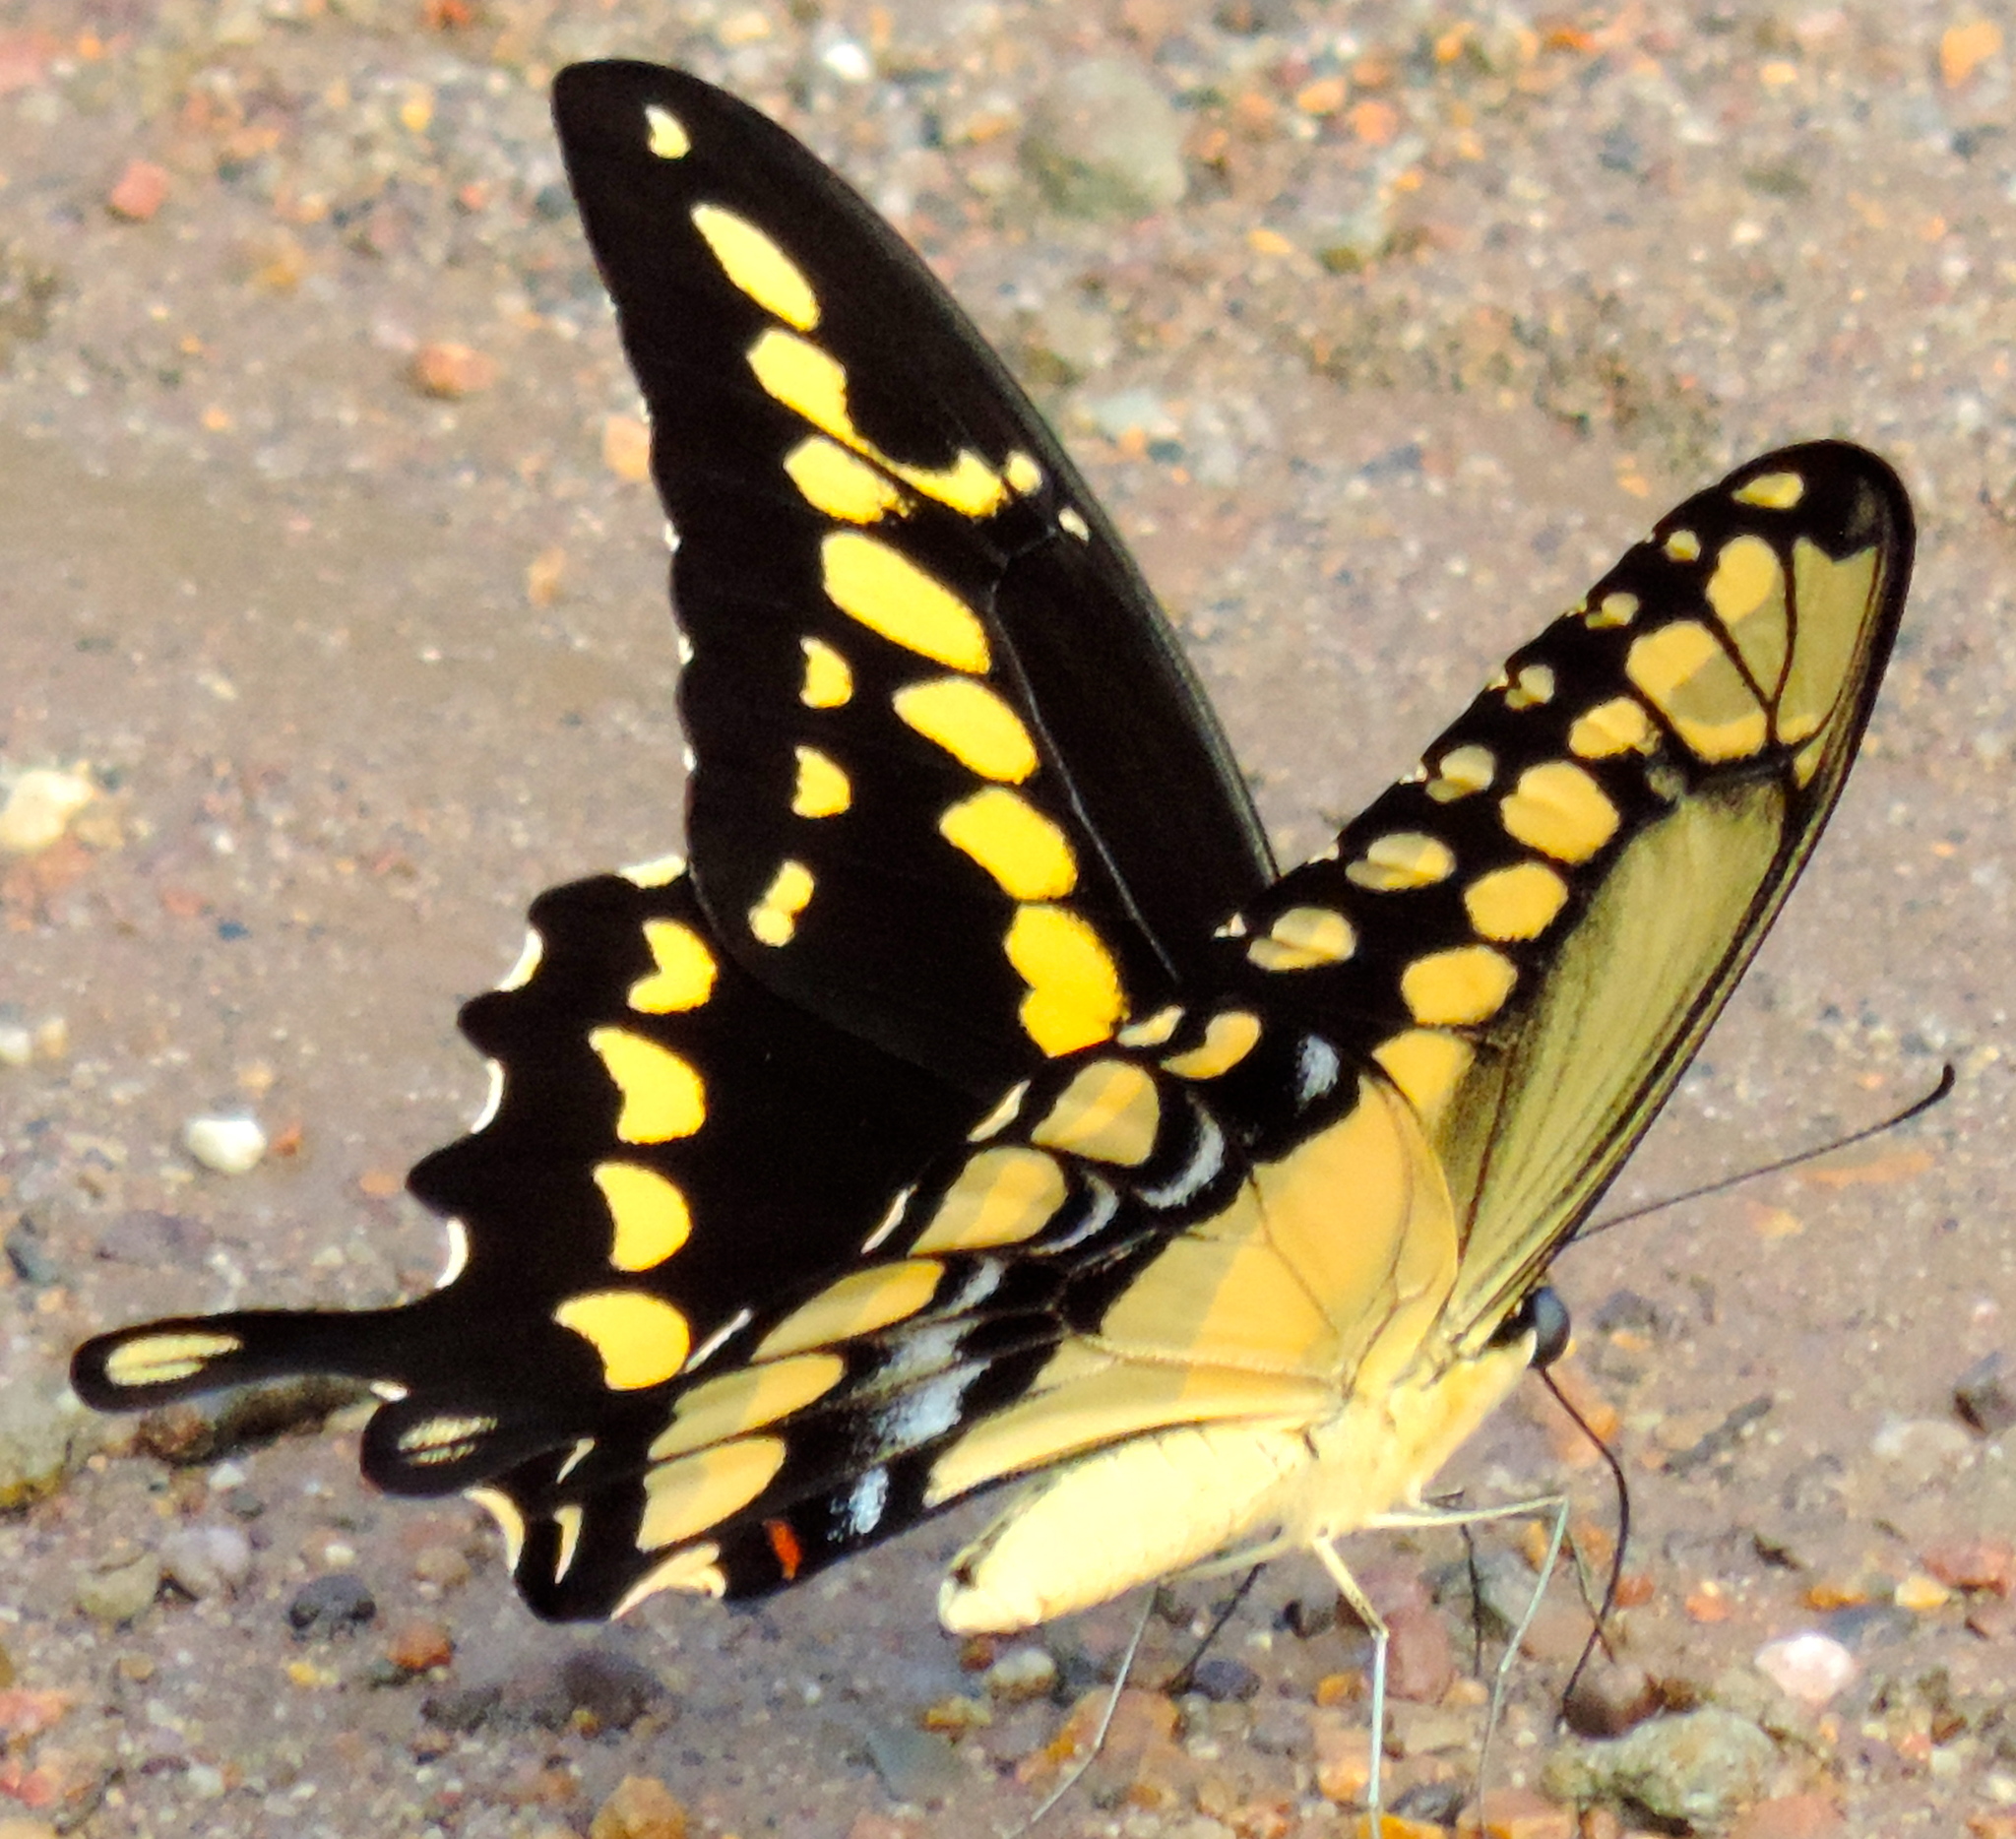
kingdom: Animalia
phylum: Arthropoda
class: Insecta
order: Lepidoptera
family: Papilionidae
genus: Papilio
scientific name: Papilio rumiko
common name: Western giant swallowtail
